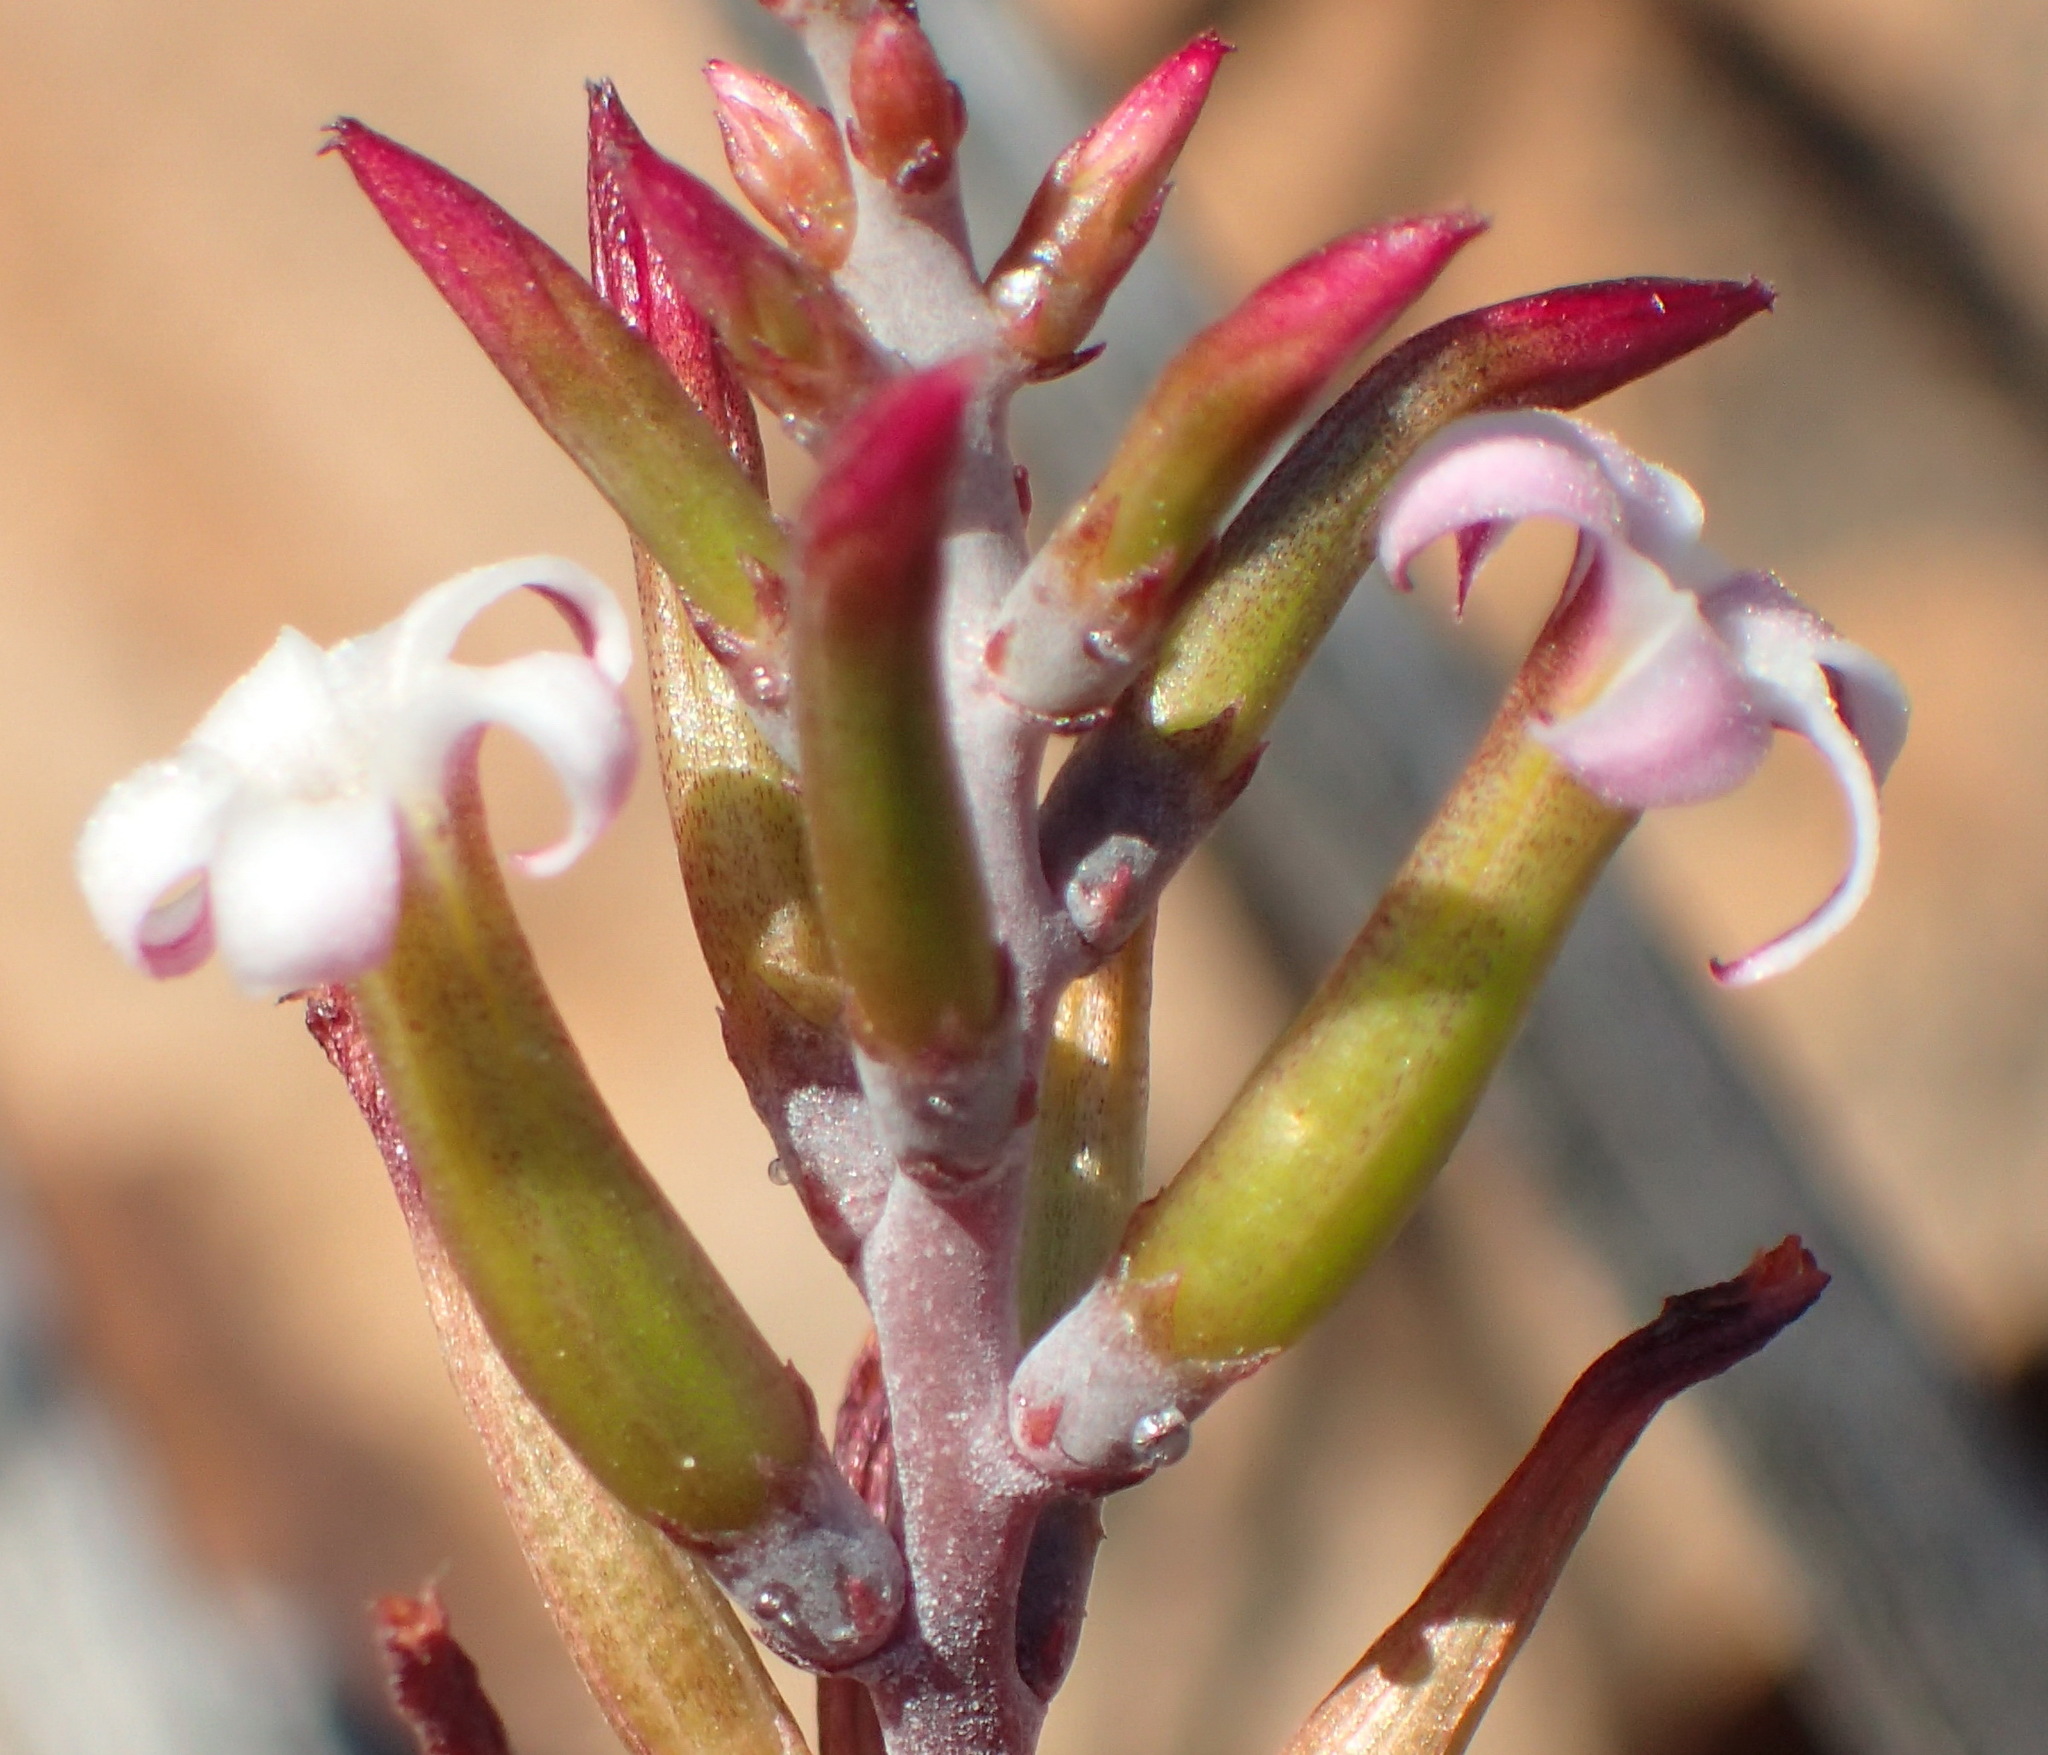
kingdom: Plantae
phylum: Tracheophyta
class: Magnoliopsida
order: Saxifragales
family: Crassulaceae
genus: Adromischus
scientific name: Adromischus triflorus
